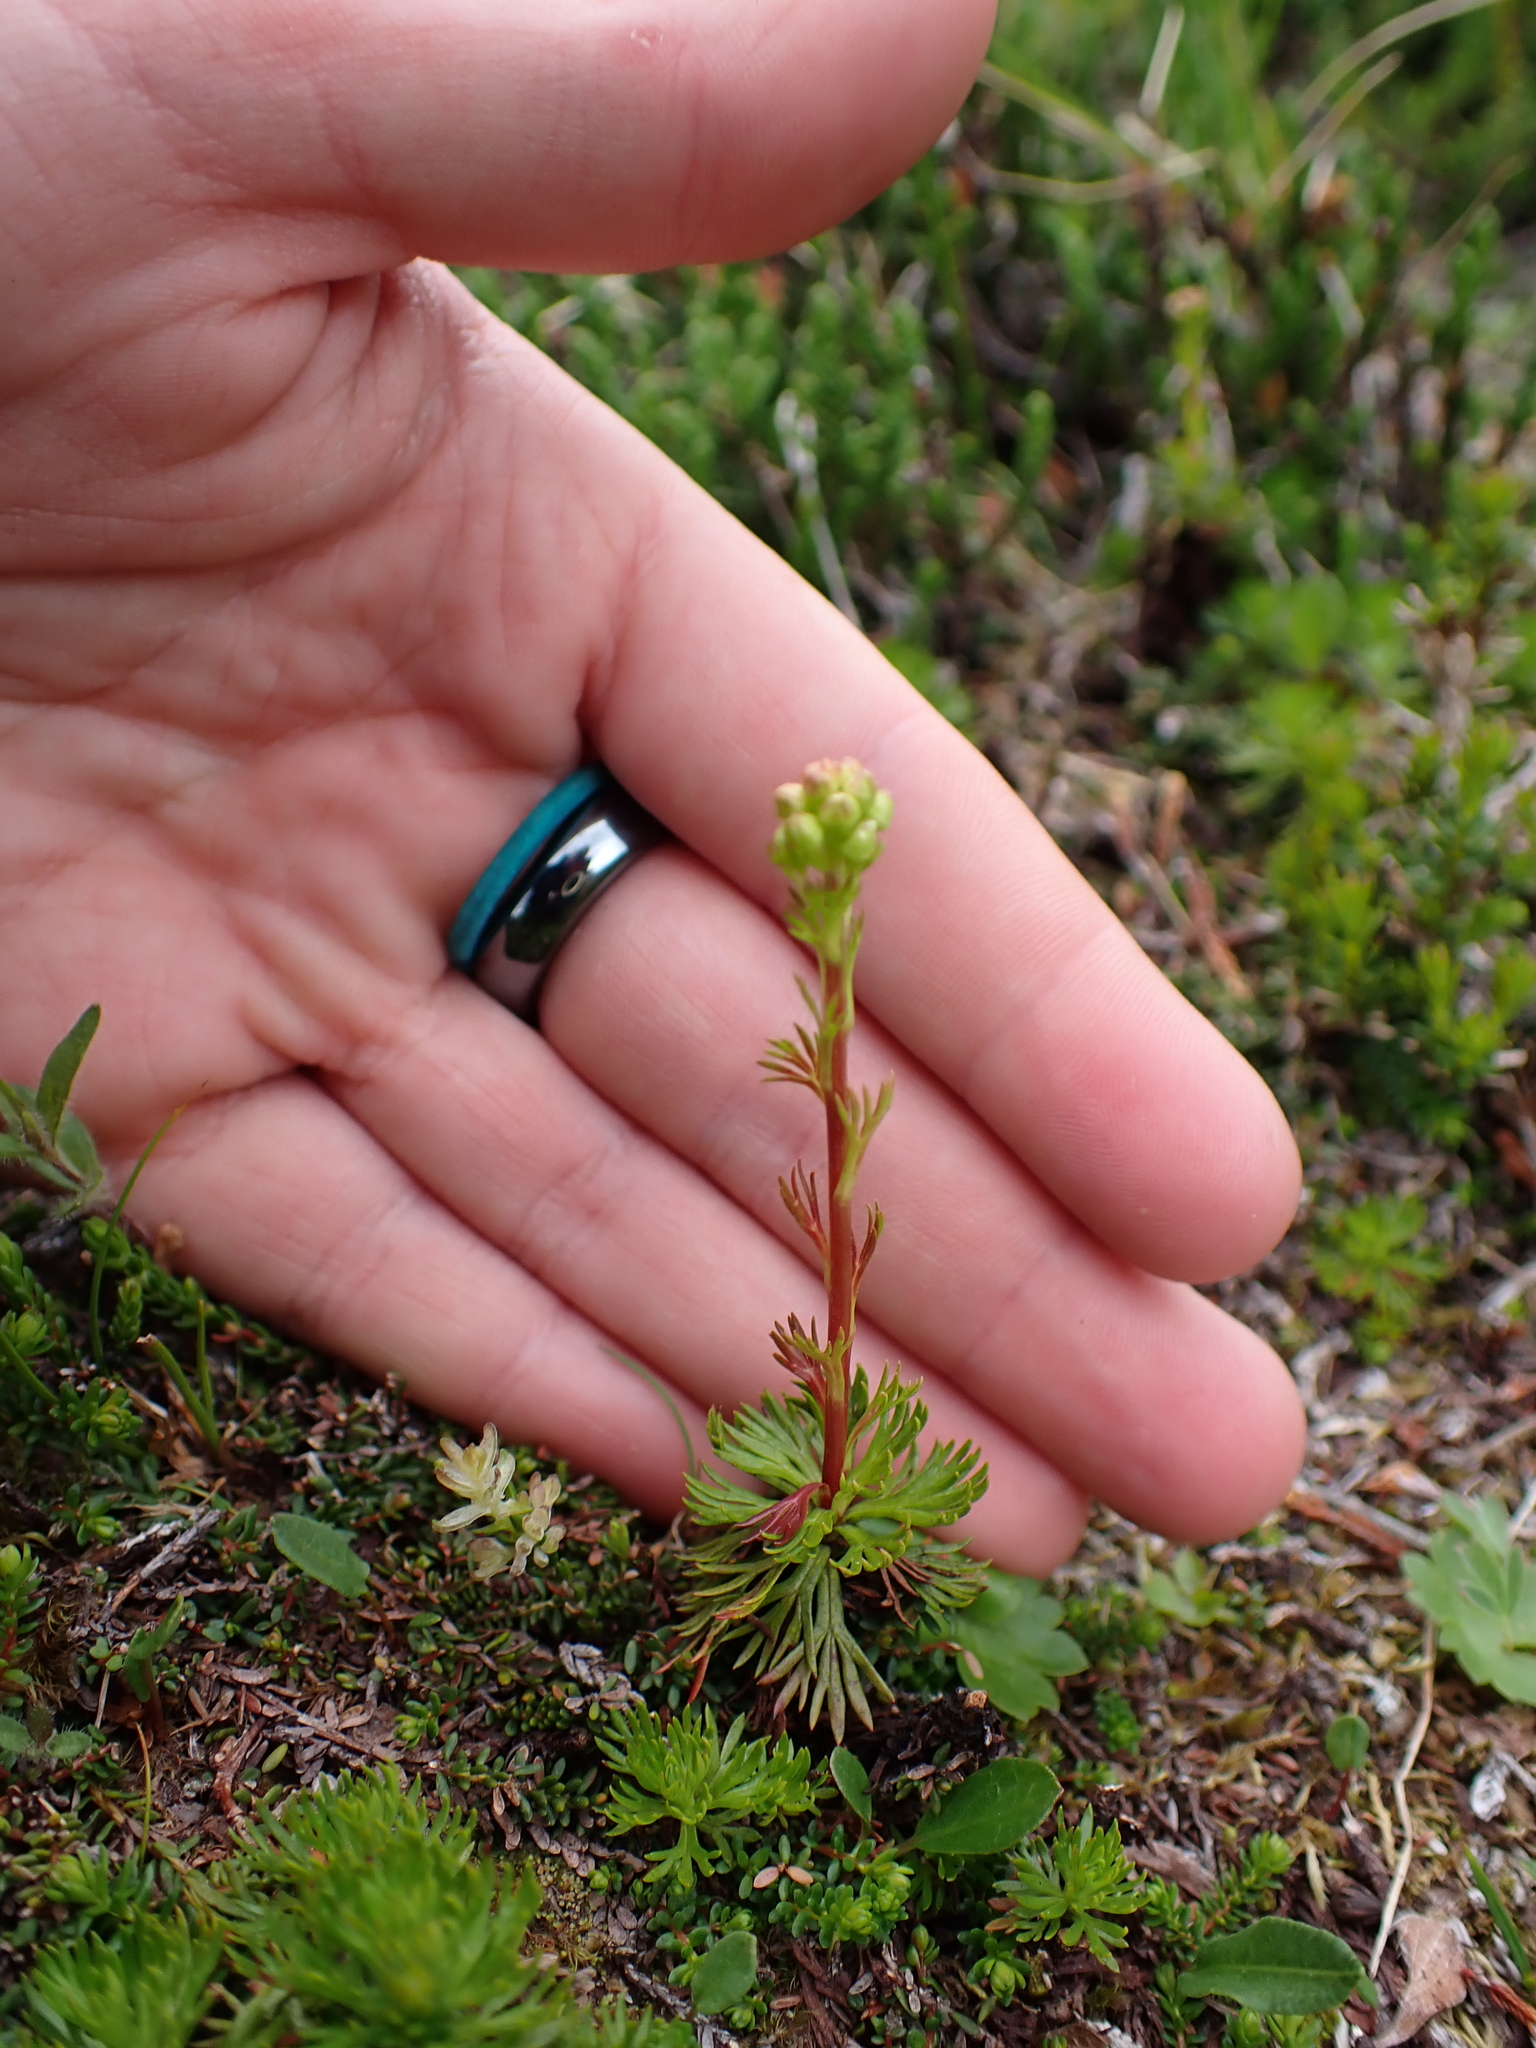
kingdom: Plantae
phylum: Tracheophyta
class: Magnoliopsida
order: Rosales
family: Rosaceae
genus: Luetkea
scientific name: Luetkea pectinata
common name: Partridgefoot
